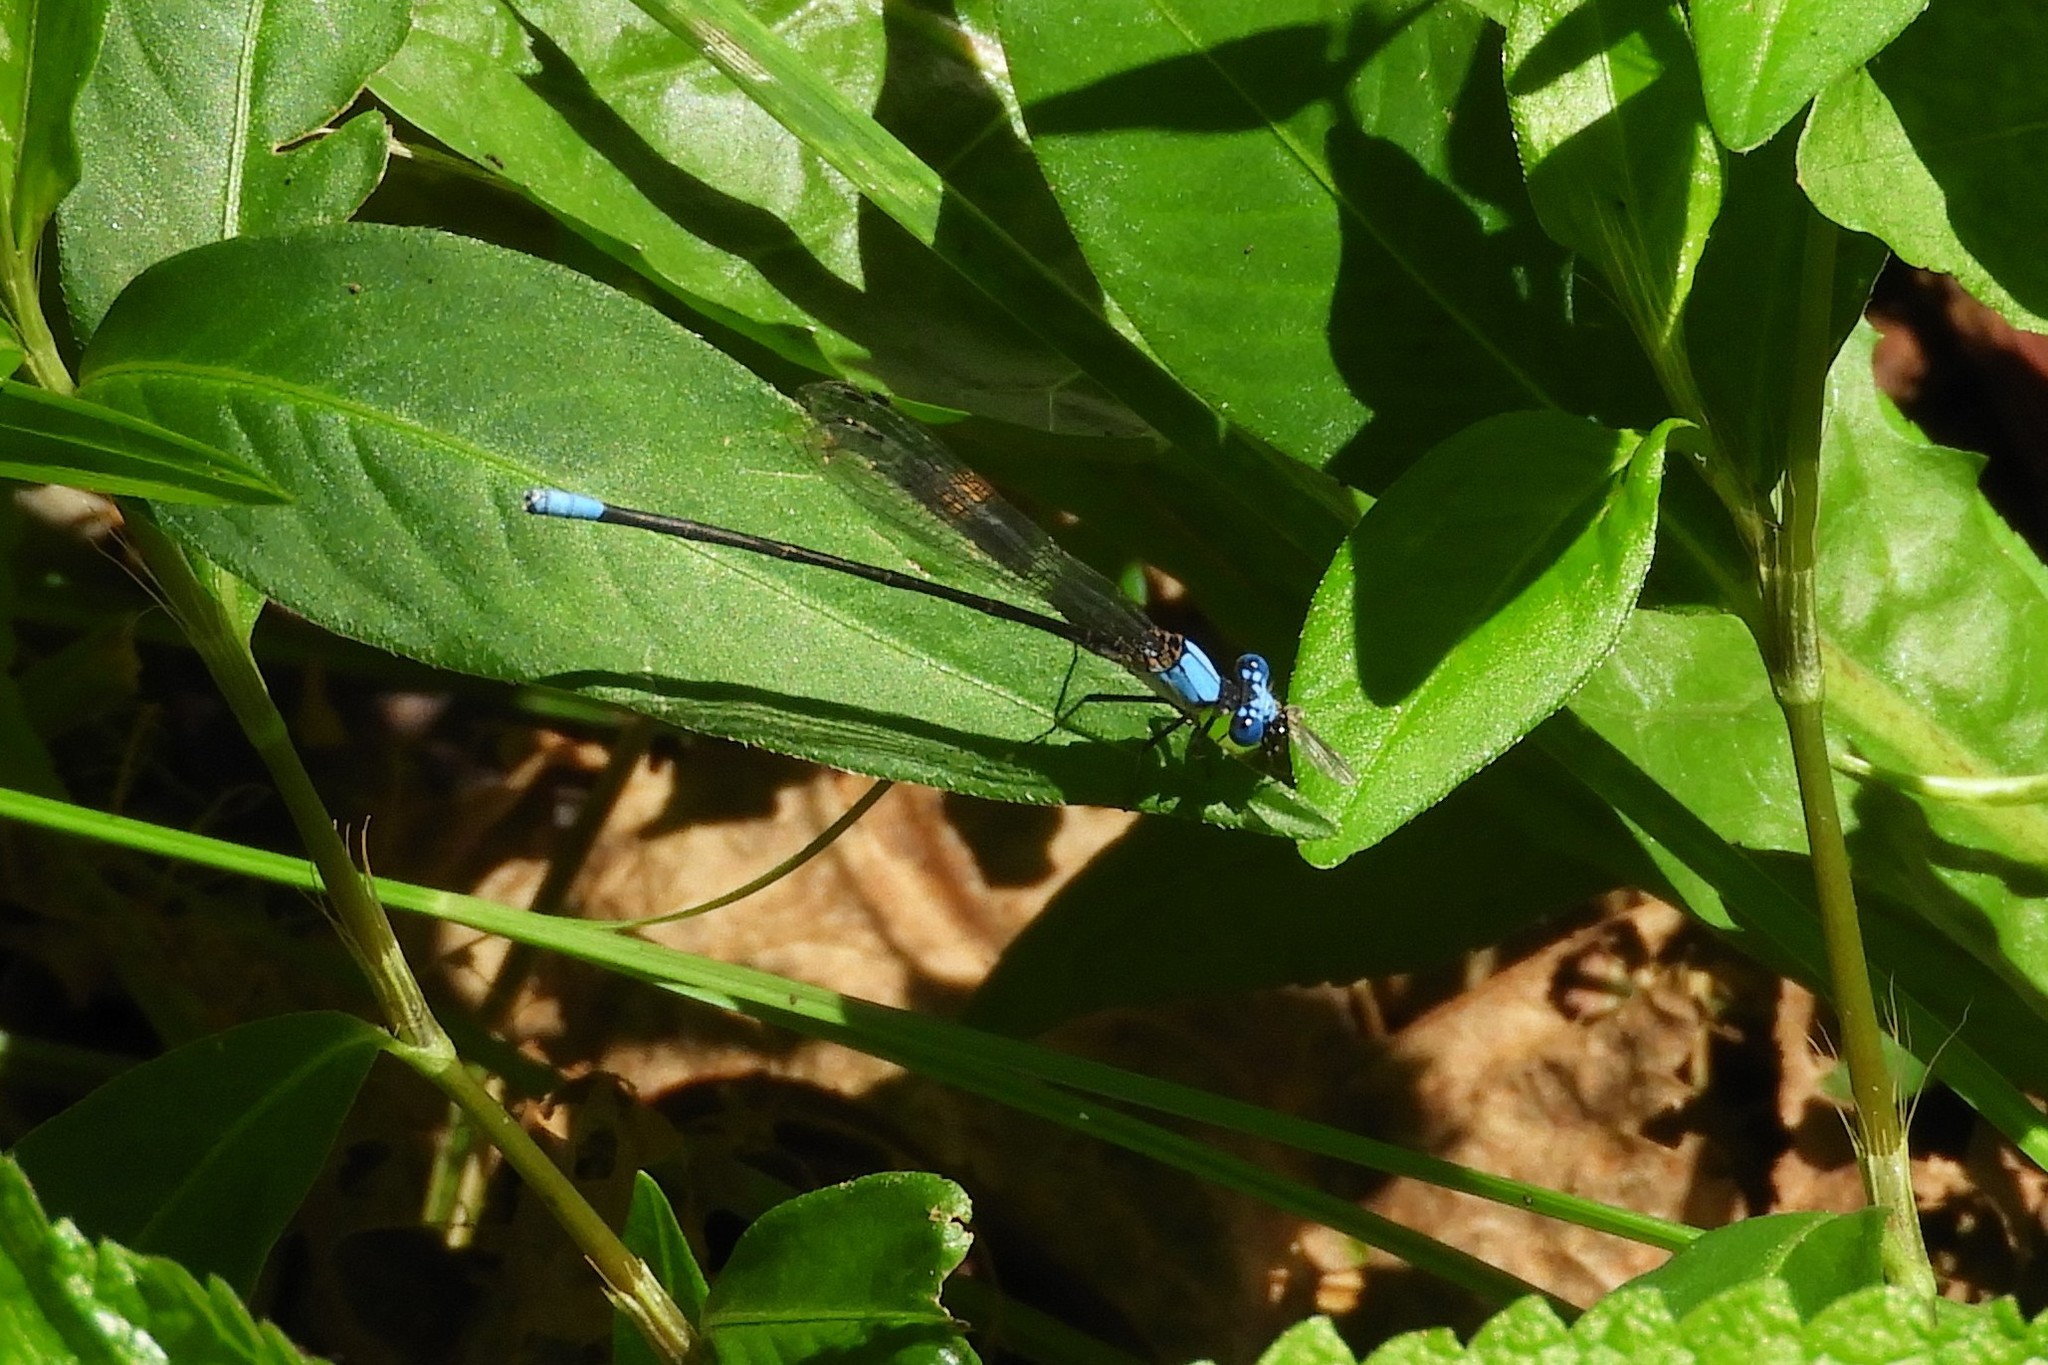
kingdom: Animalia
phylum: Arthropoda
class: Insecta
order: Odonata
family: Coenagrionidae
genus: Argia
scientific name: Argia apicalis
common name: Blue-fronted dancer
